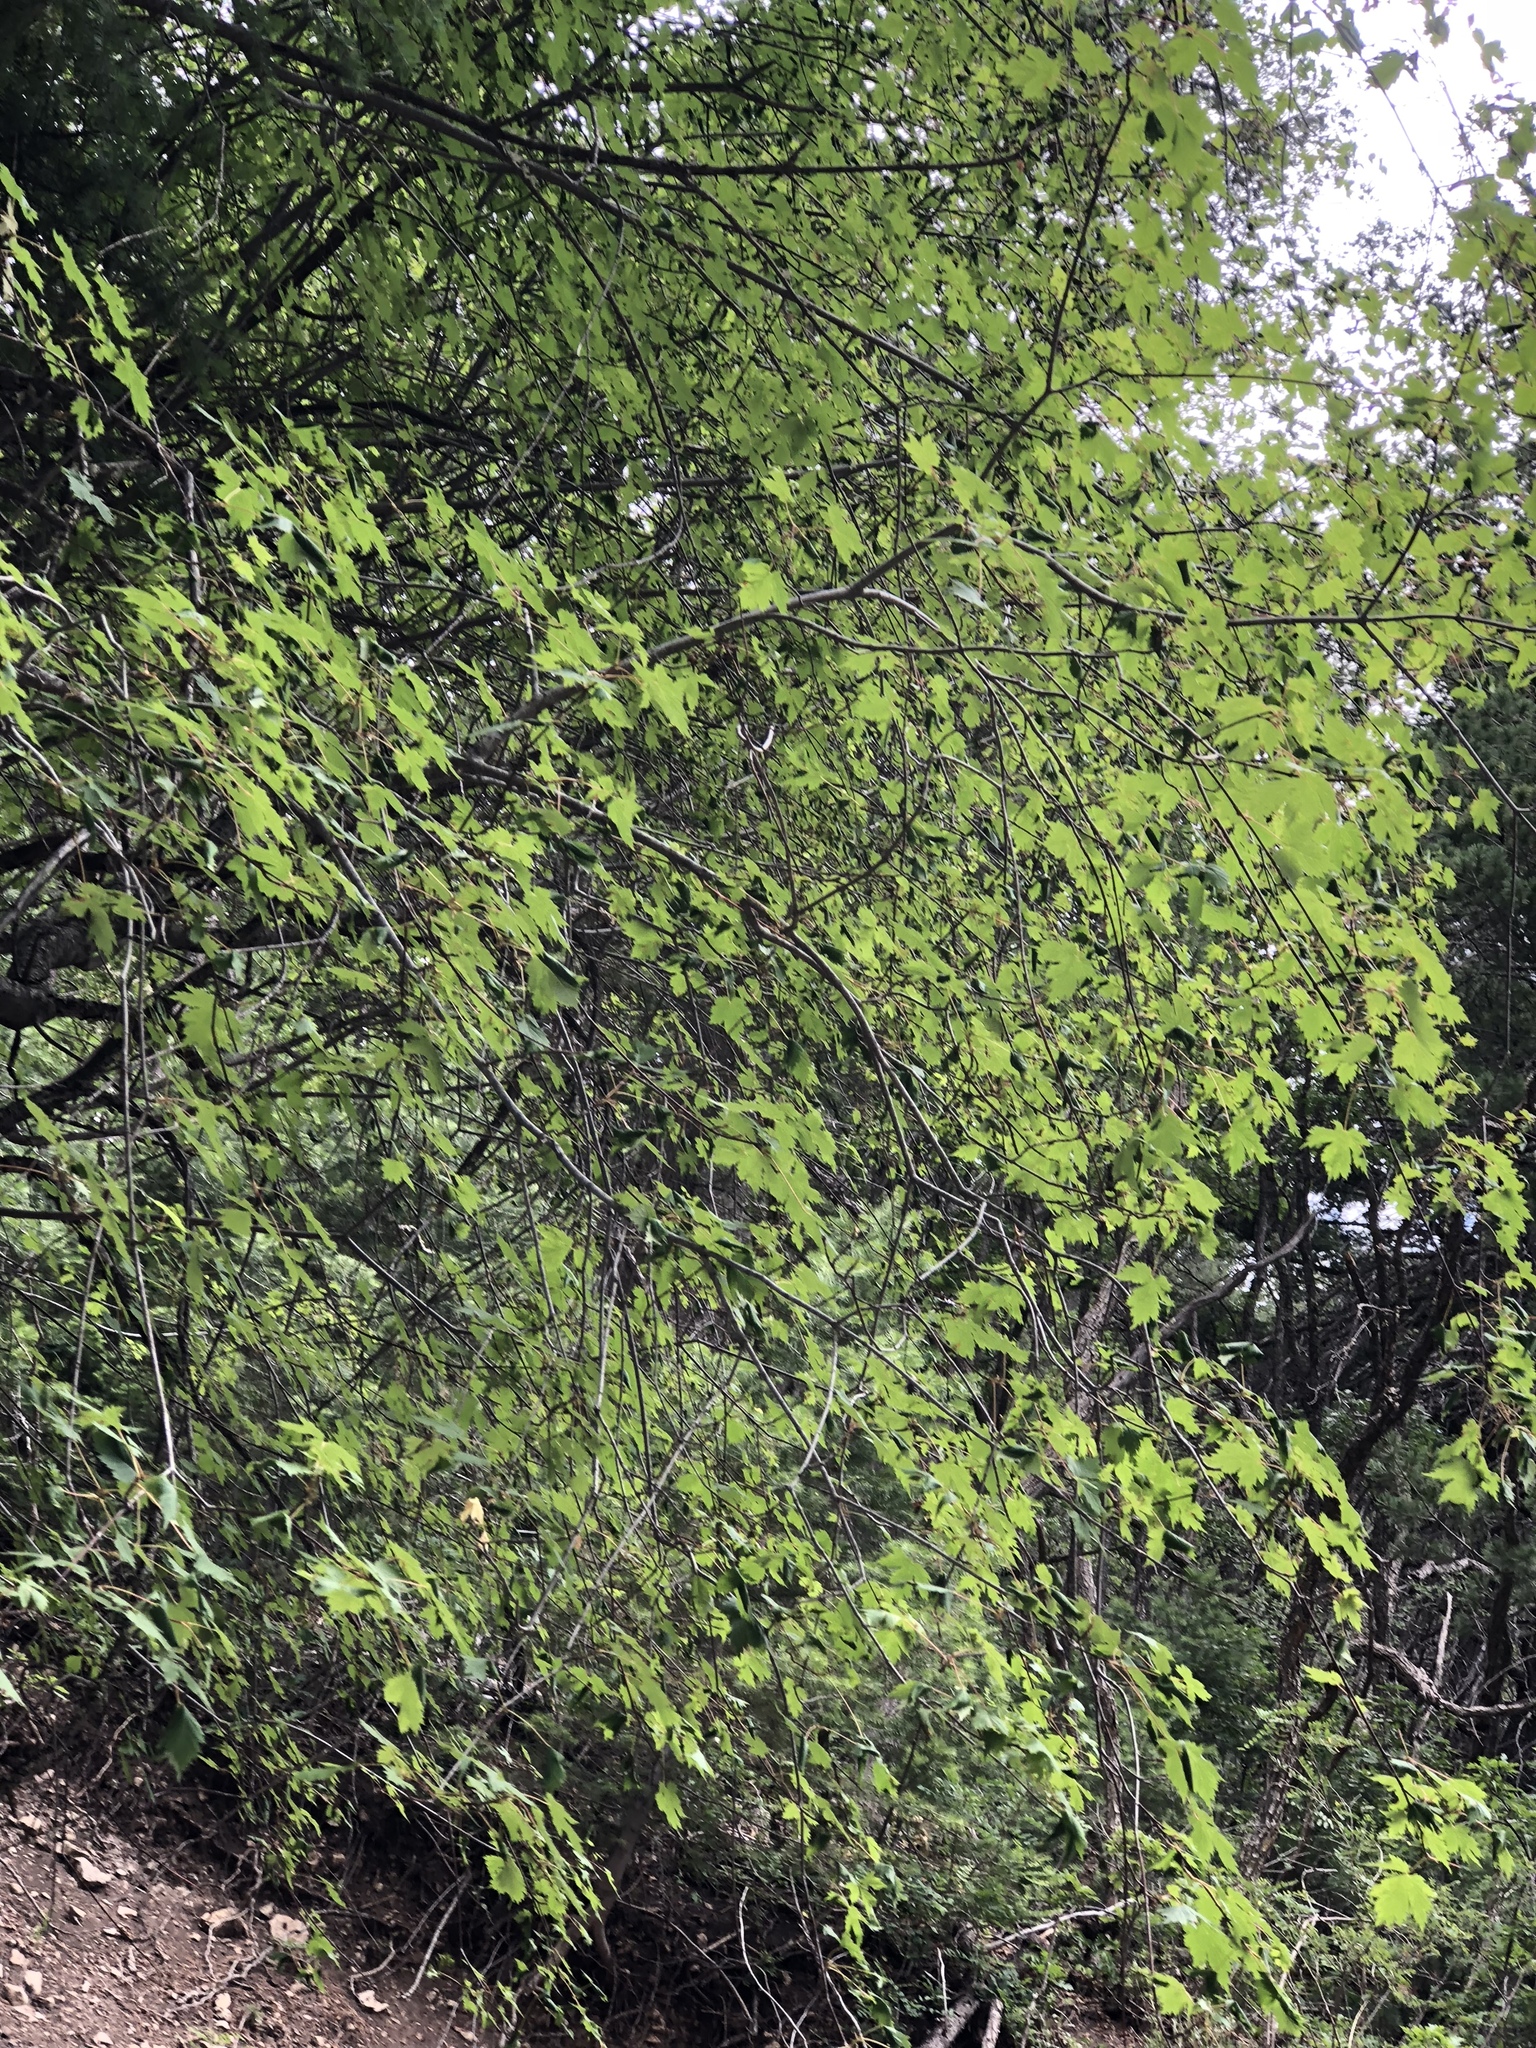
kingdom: Plantae
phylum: Tracheophyta
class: Magnoliopsida
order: Sapindales
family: Sapindaceae
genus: Acer
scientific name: Acer glabrum
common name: Rocky mountain maple
